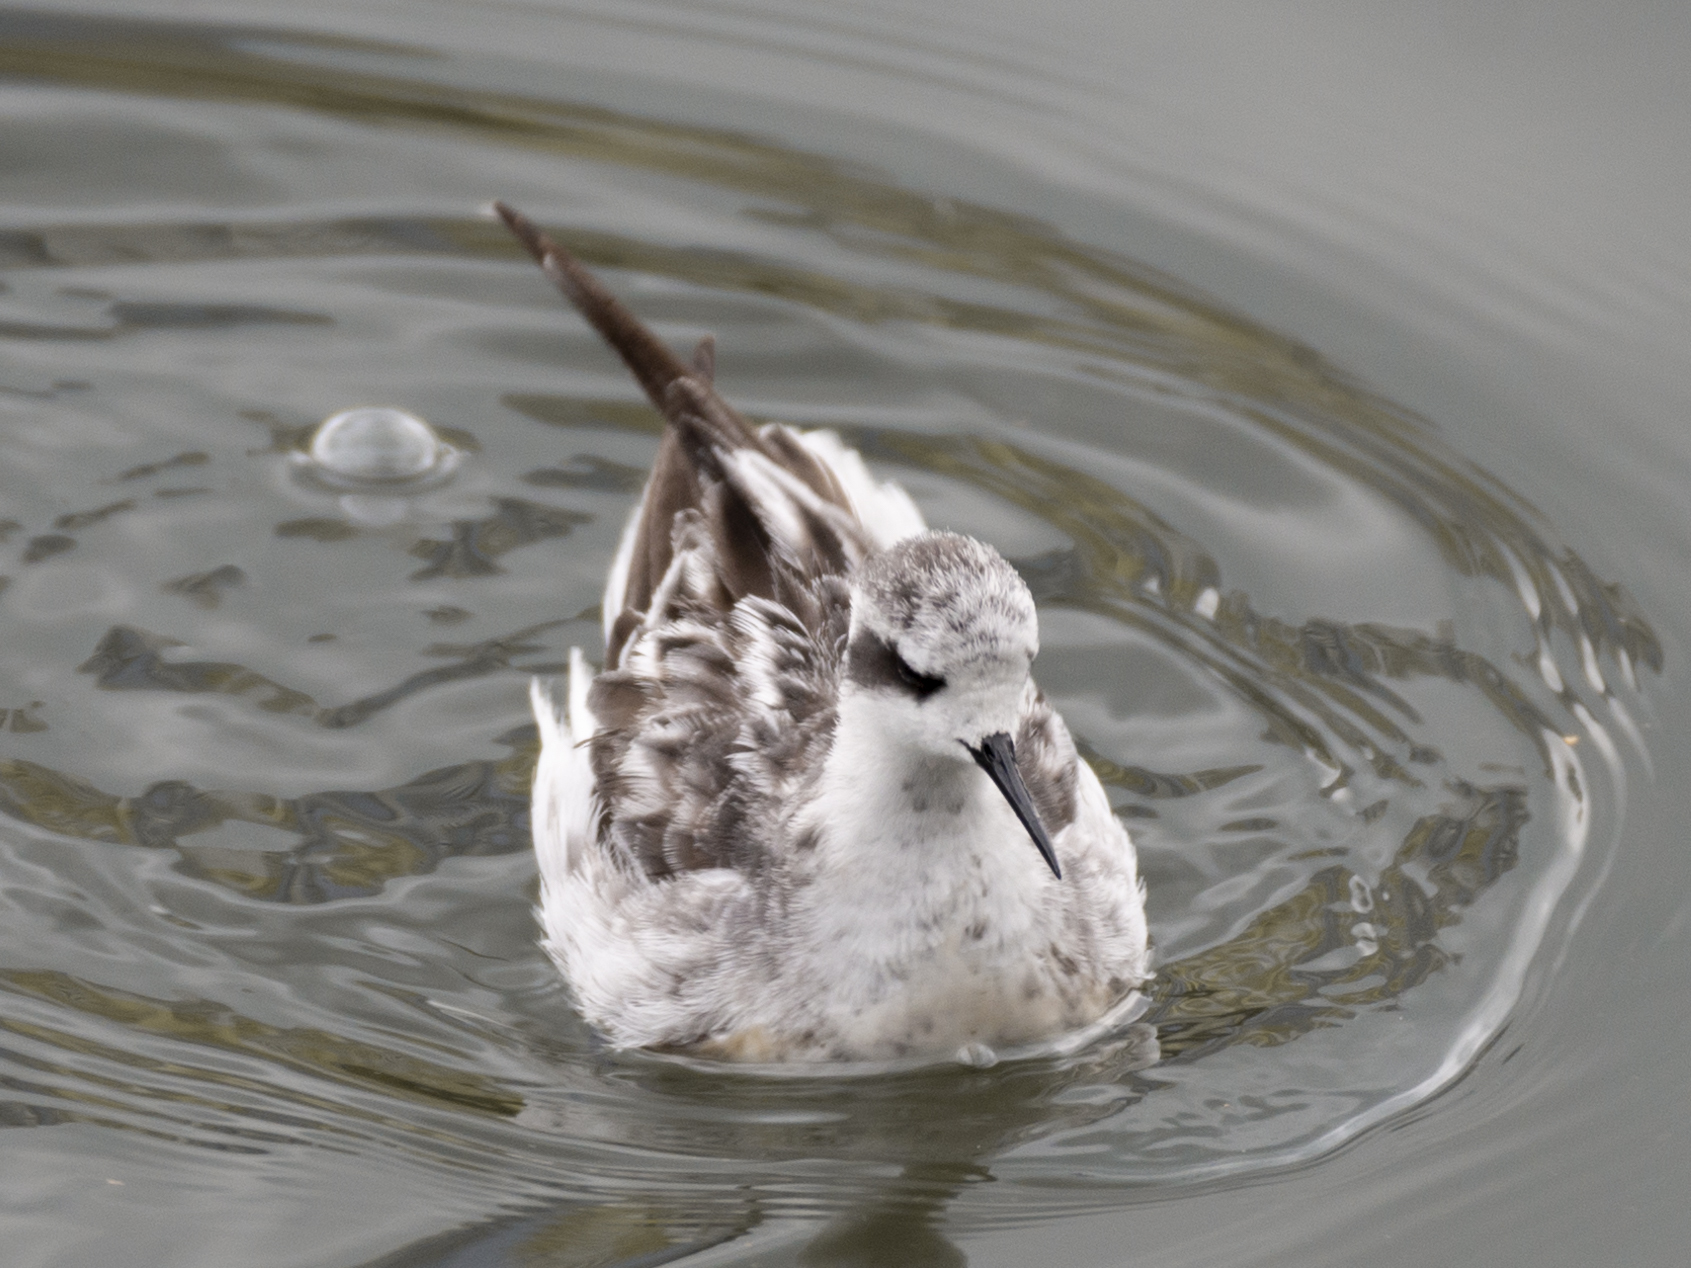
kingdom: Animalia
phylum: Chordata
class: Aves
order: Charadriiformes
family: Scolopacidae
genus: Phalaropus
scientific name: Phalaropus lobatus
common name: Red-necked phalarope
